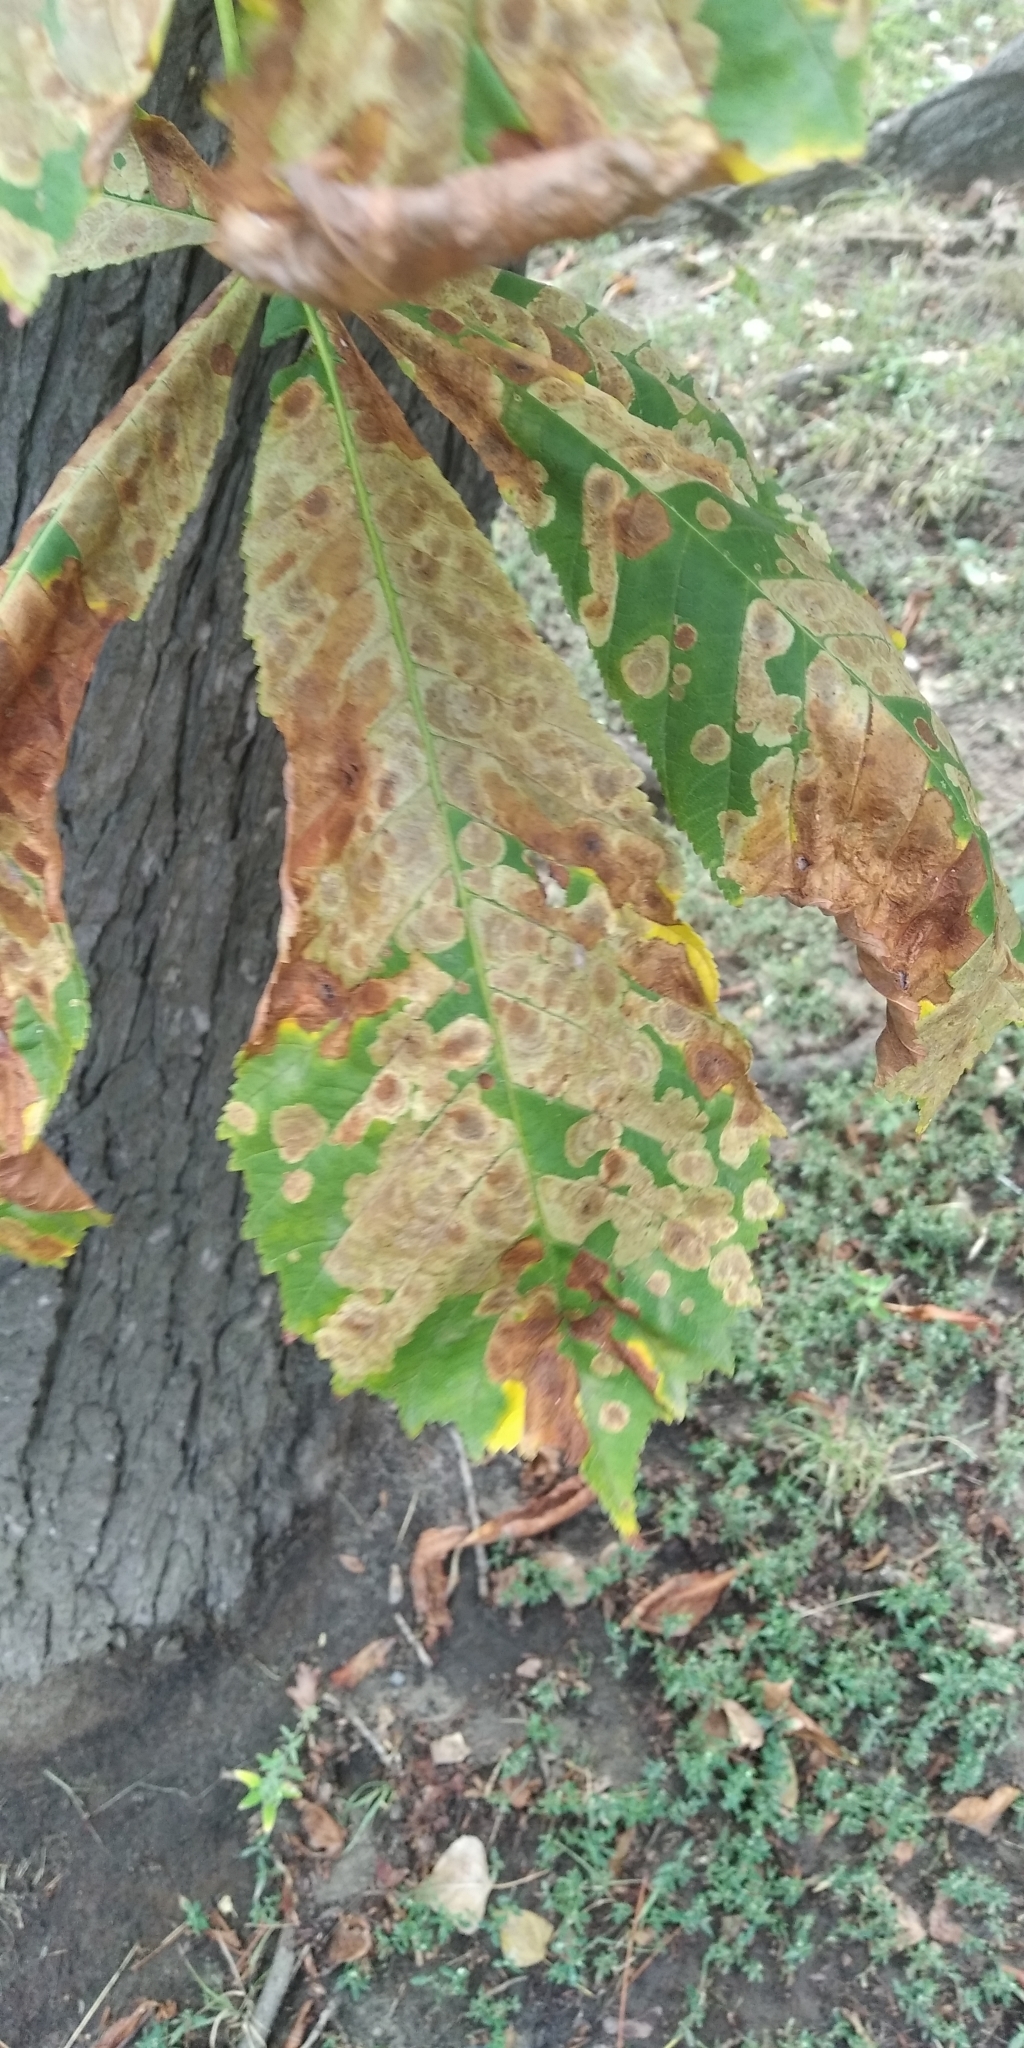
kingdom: Animalia
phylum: Arthropoda
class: Insecta
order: Lepidoptera
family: Gracillariidae
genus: Cameraria
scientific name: Cameraria ohridella
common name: Horse-chestnut leaf-miner
